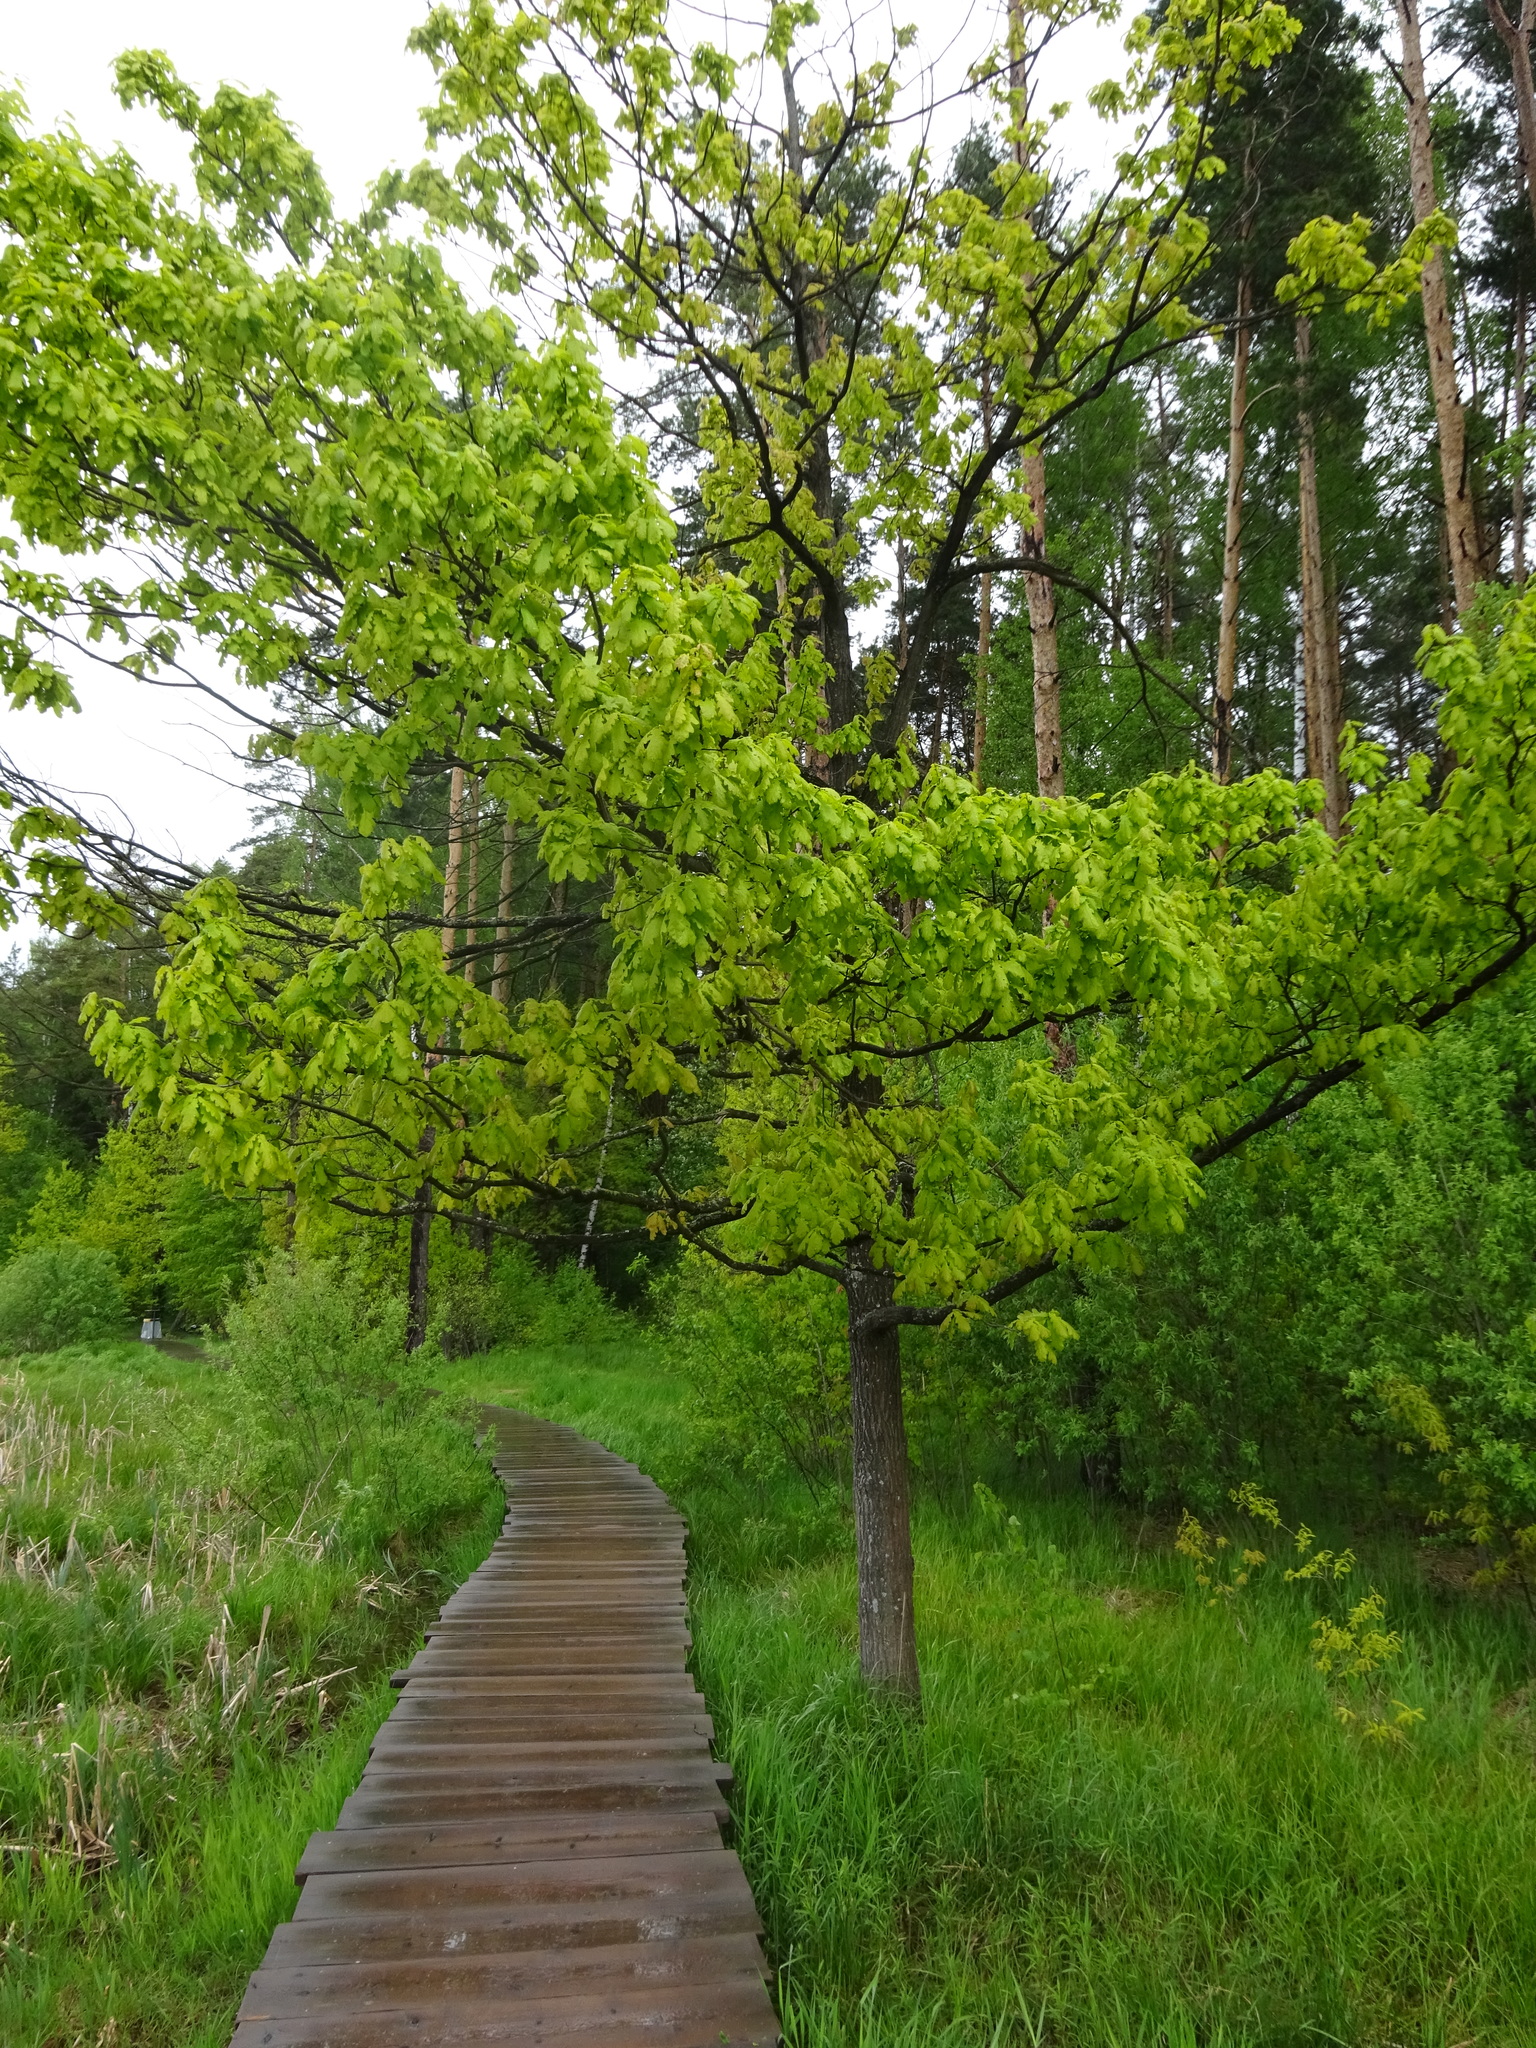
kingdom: Plantae
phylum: Tracheophyta
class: Magnoliopsida
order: Fagales
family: Fagaceae
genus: Quercus
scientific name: Quercus robur
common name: Pedunculate oak
